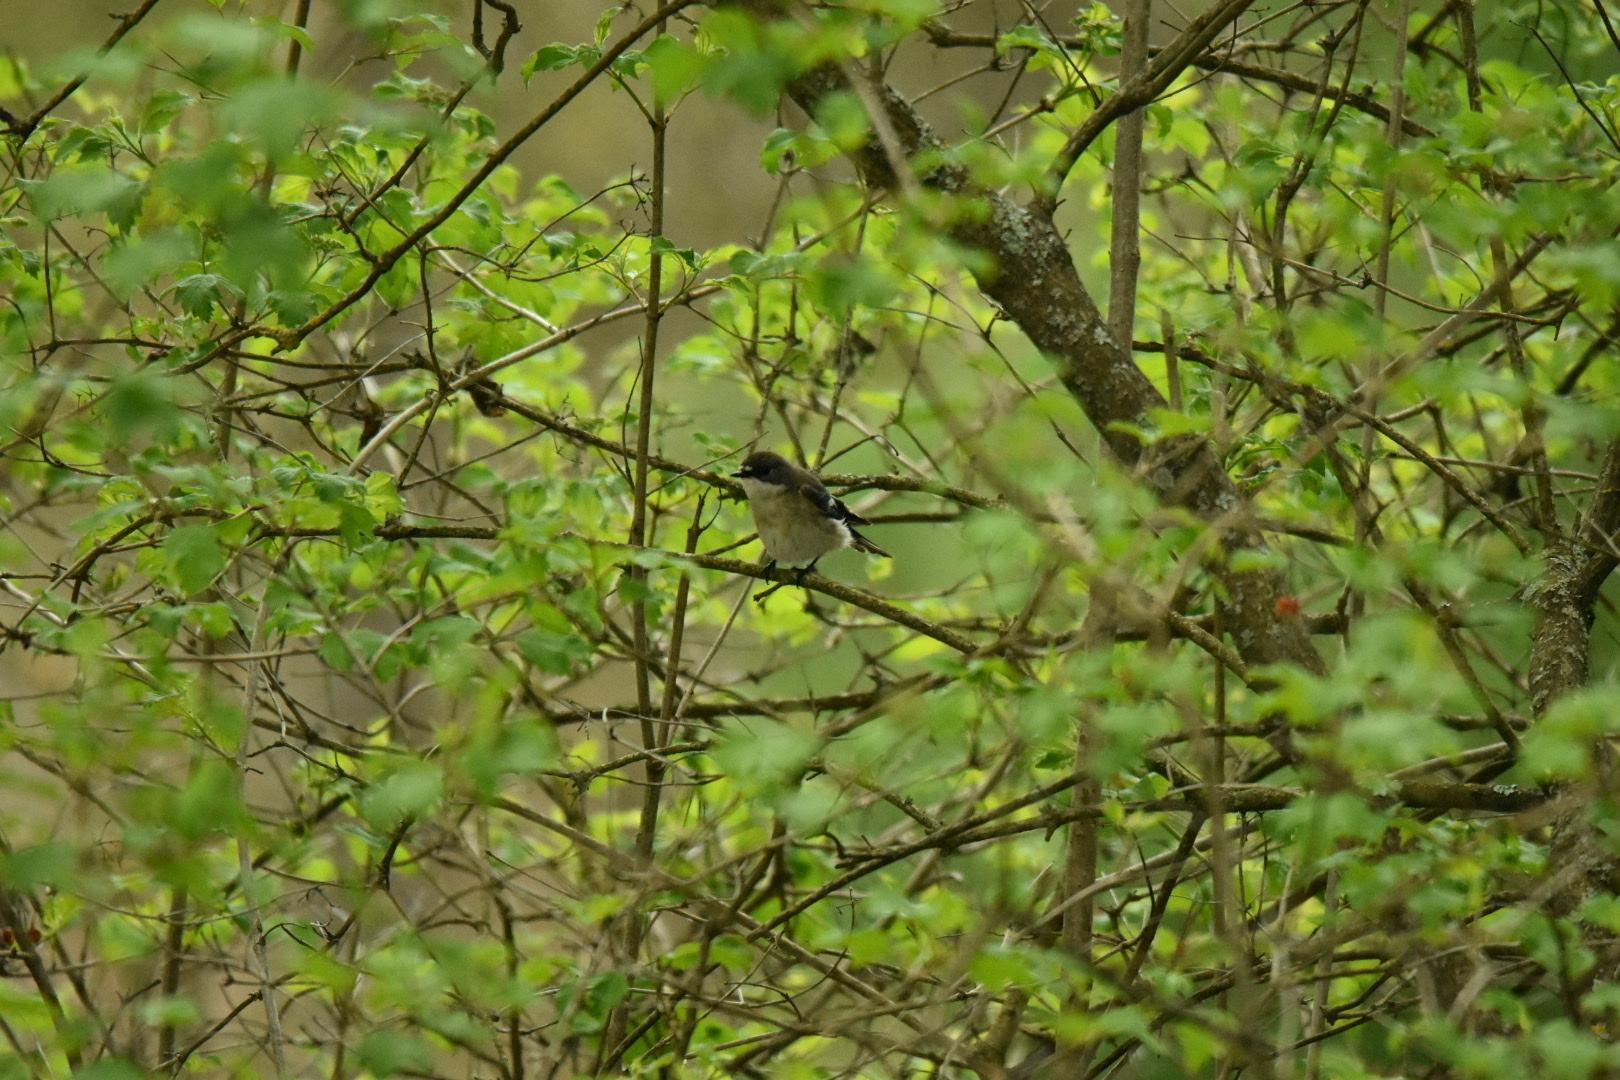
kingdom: Animalia
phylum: Chordata
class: Aves
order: Passeriformes
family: Muscicapidae
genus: Ficedula
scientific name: Ficedula hypoleuca
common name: European pied flycatcher
